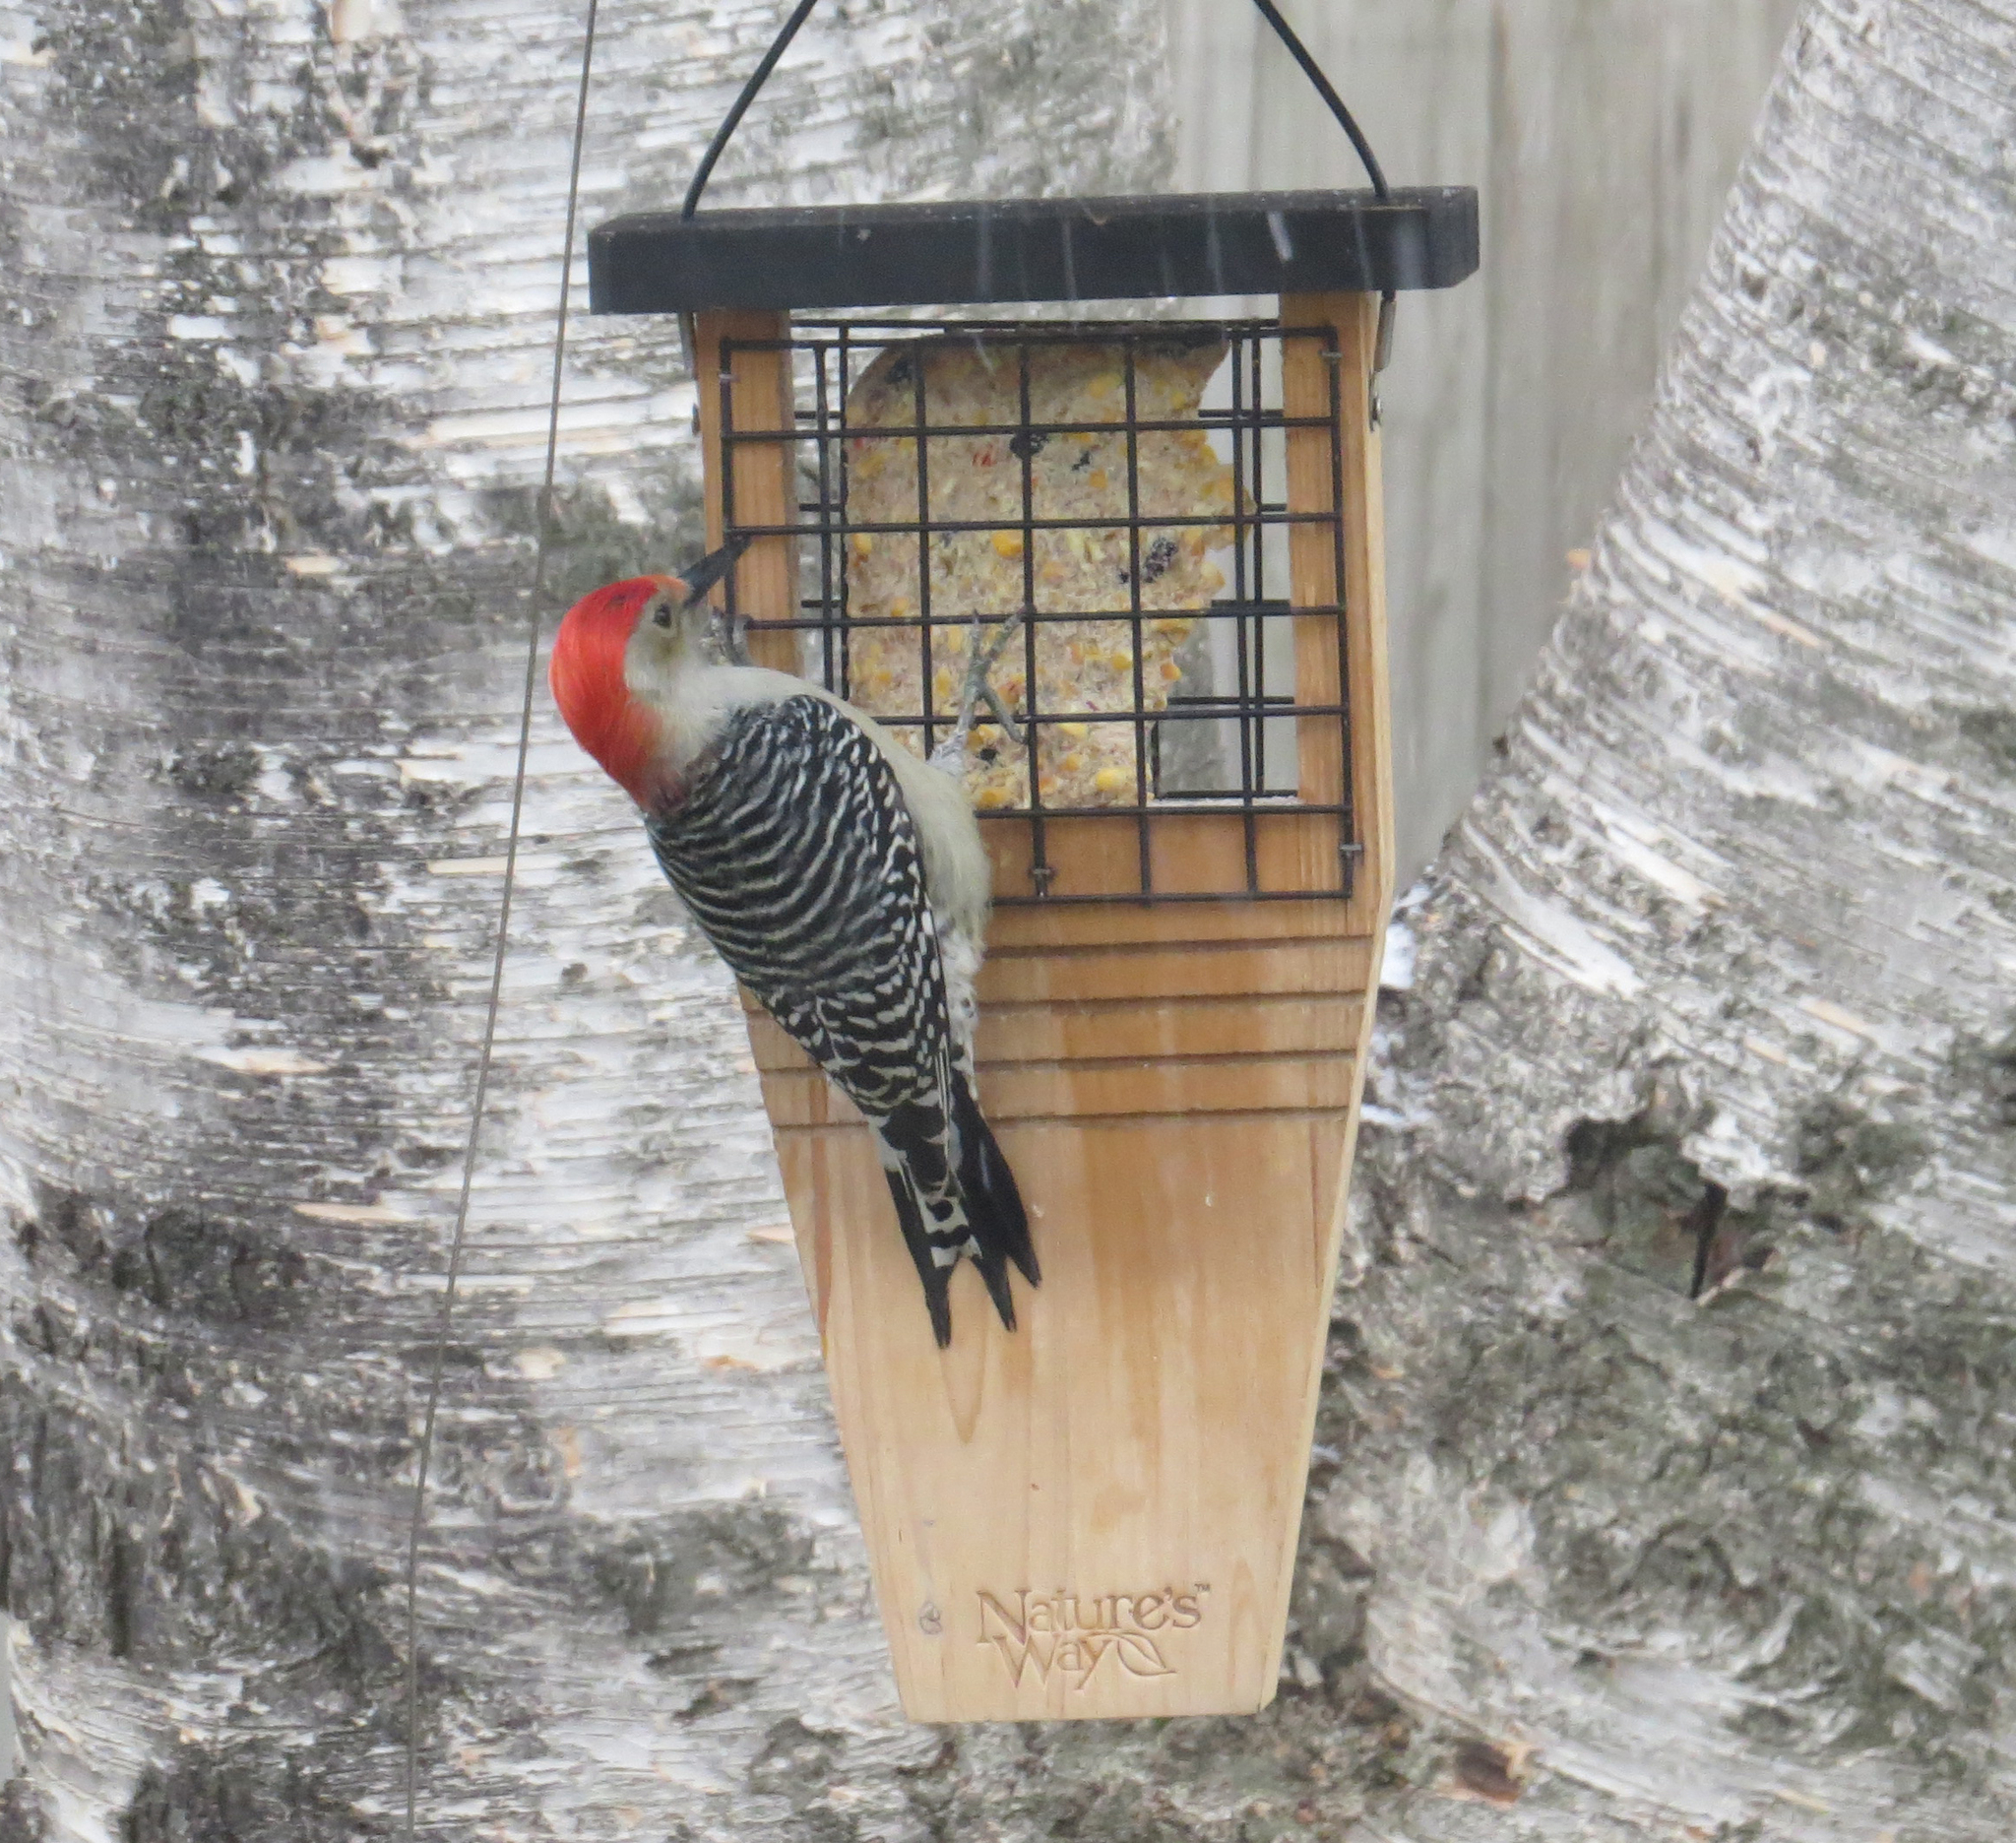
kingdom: Animalia
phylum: Chordata
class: Aves
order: Piciformes
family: Picidae
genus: Melanerpes
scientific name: Melanerpes carolinus
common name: Red-bellied woodpecker
